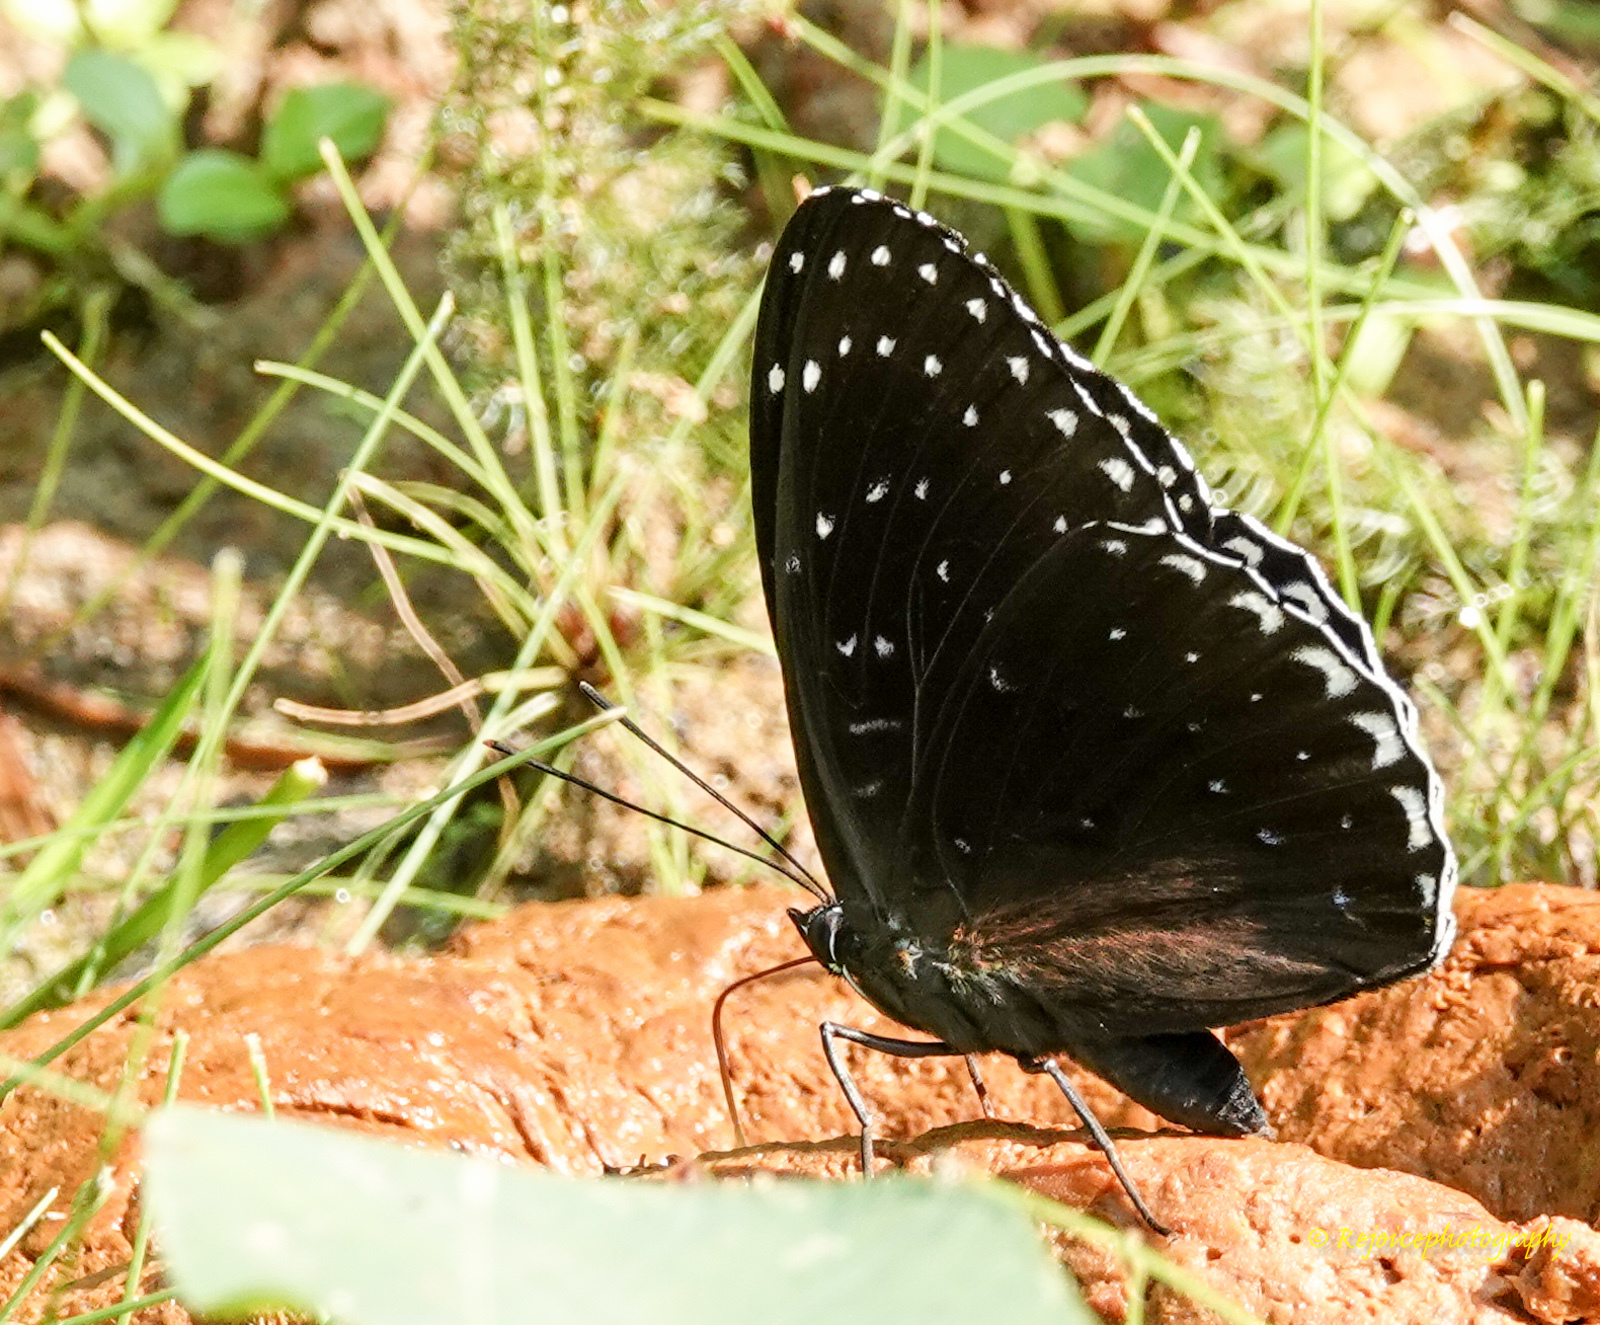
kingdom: Animalia
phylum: Arthropoda
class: Insecta
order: Lepidoptera
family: Nymphalidae
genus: Stibochiona
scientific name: Stibochiona nicea
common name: Popinjay
